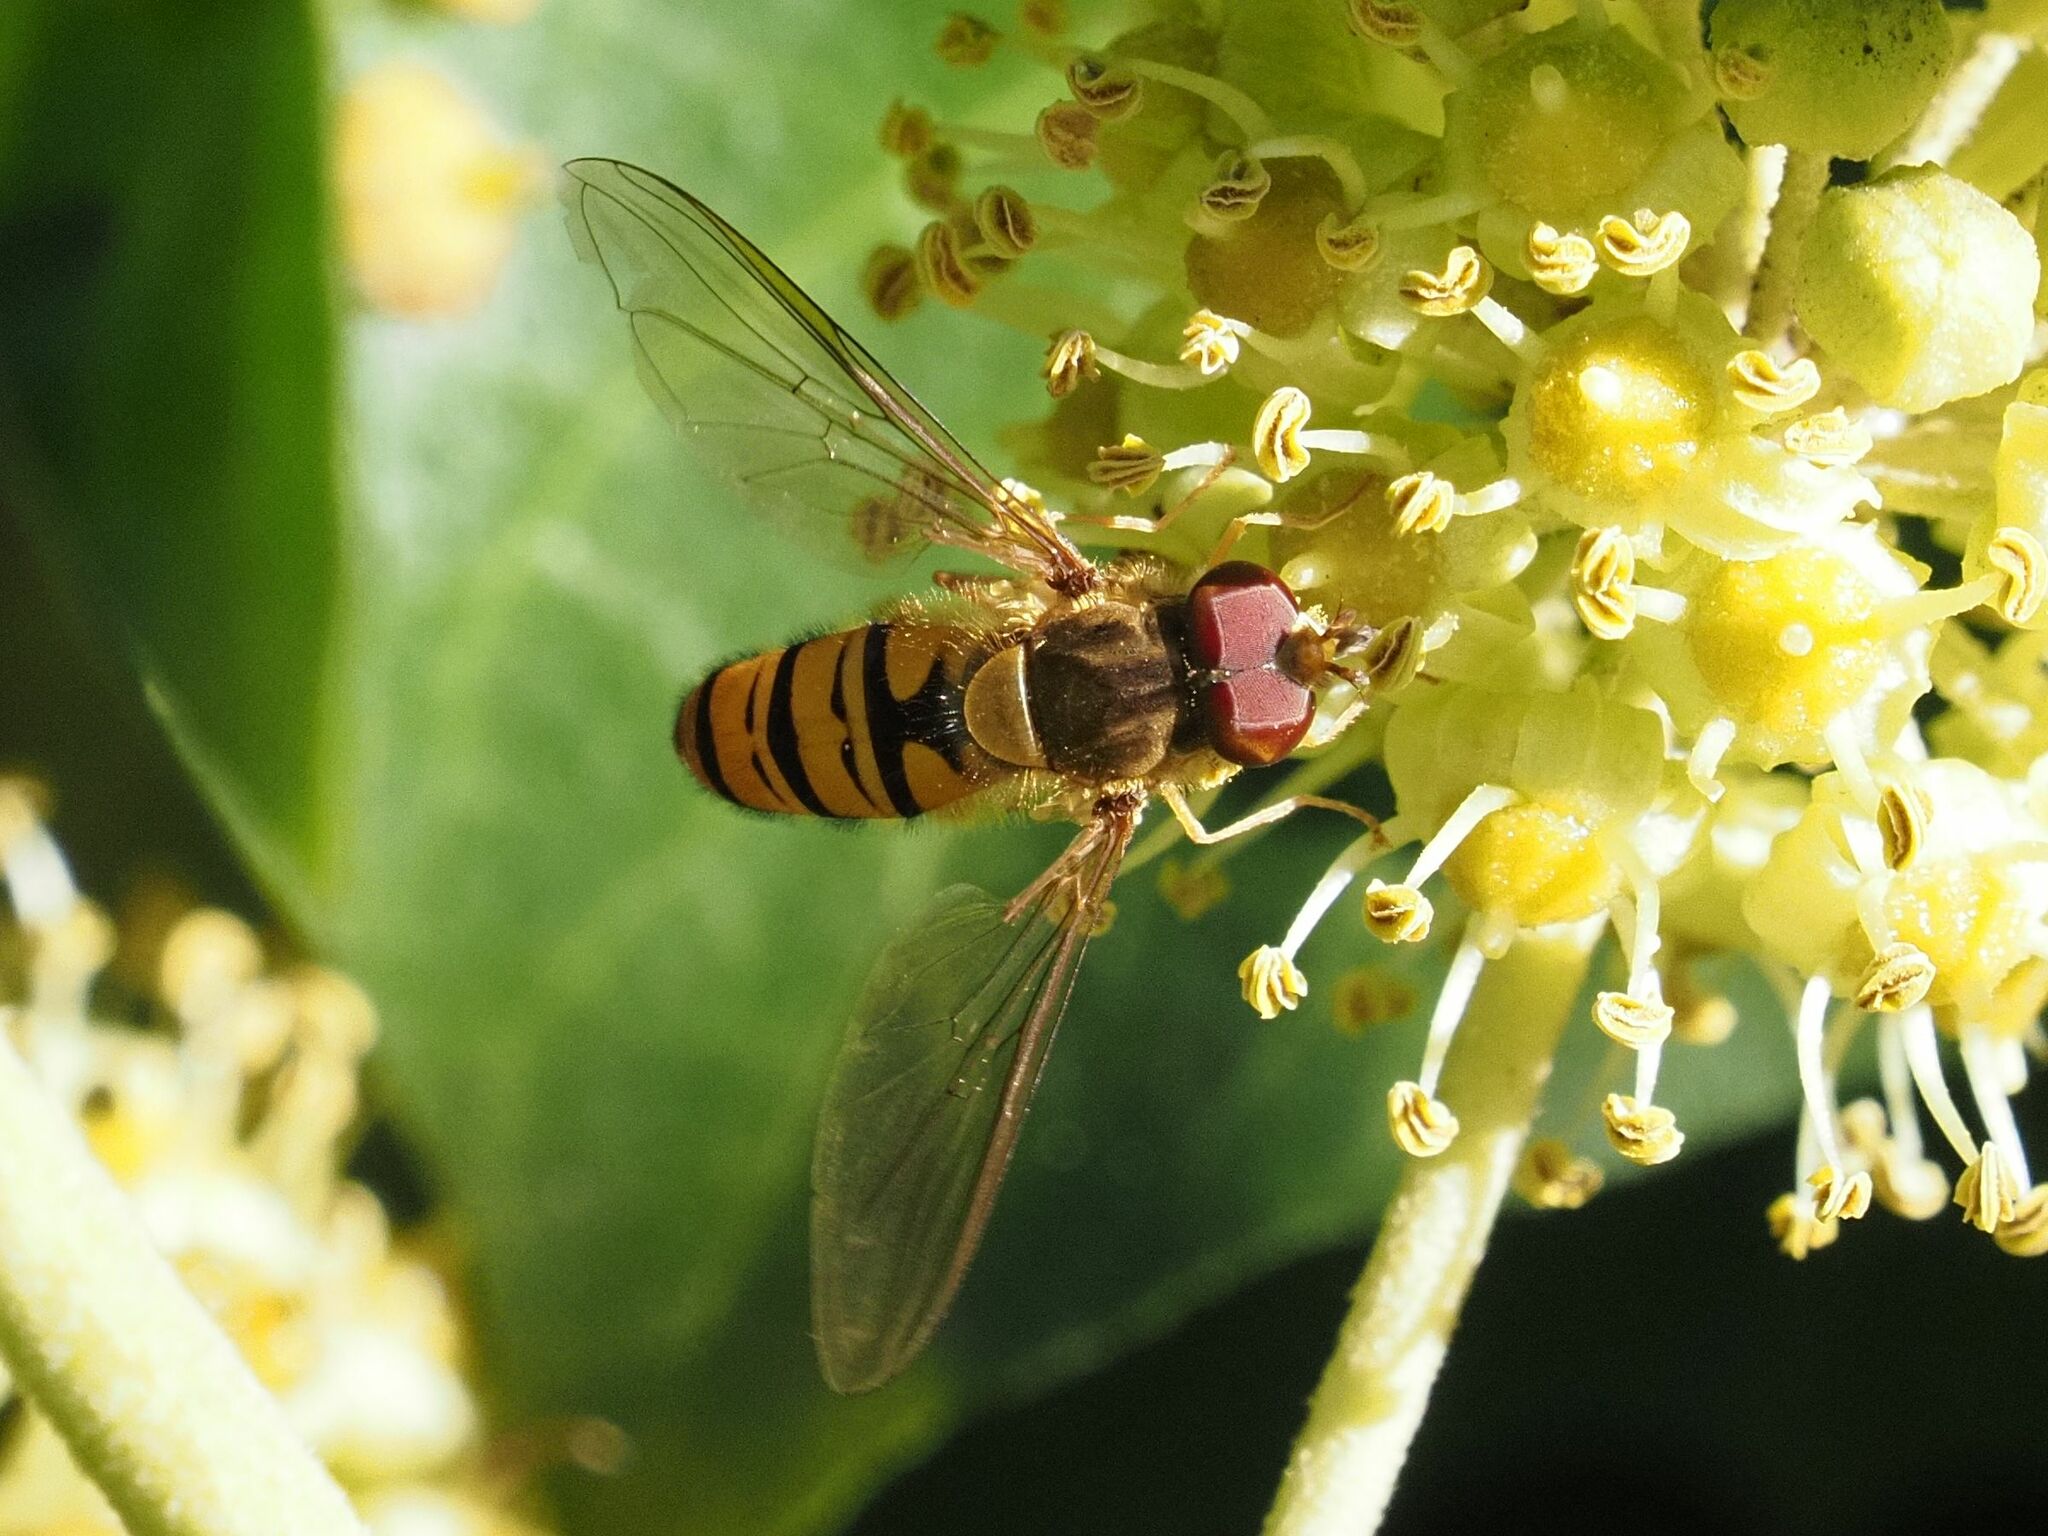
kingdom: Animalia
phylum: Arthropoda
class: Insecta
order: Diptera
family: Syrphidae
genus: Episyrphus
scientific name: Episyrphus balteatus
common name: Marmalade hoverfly
